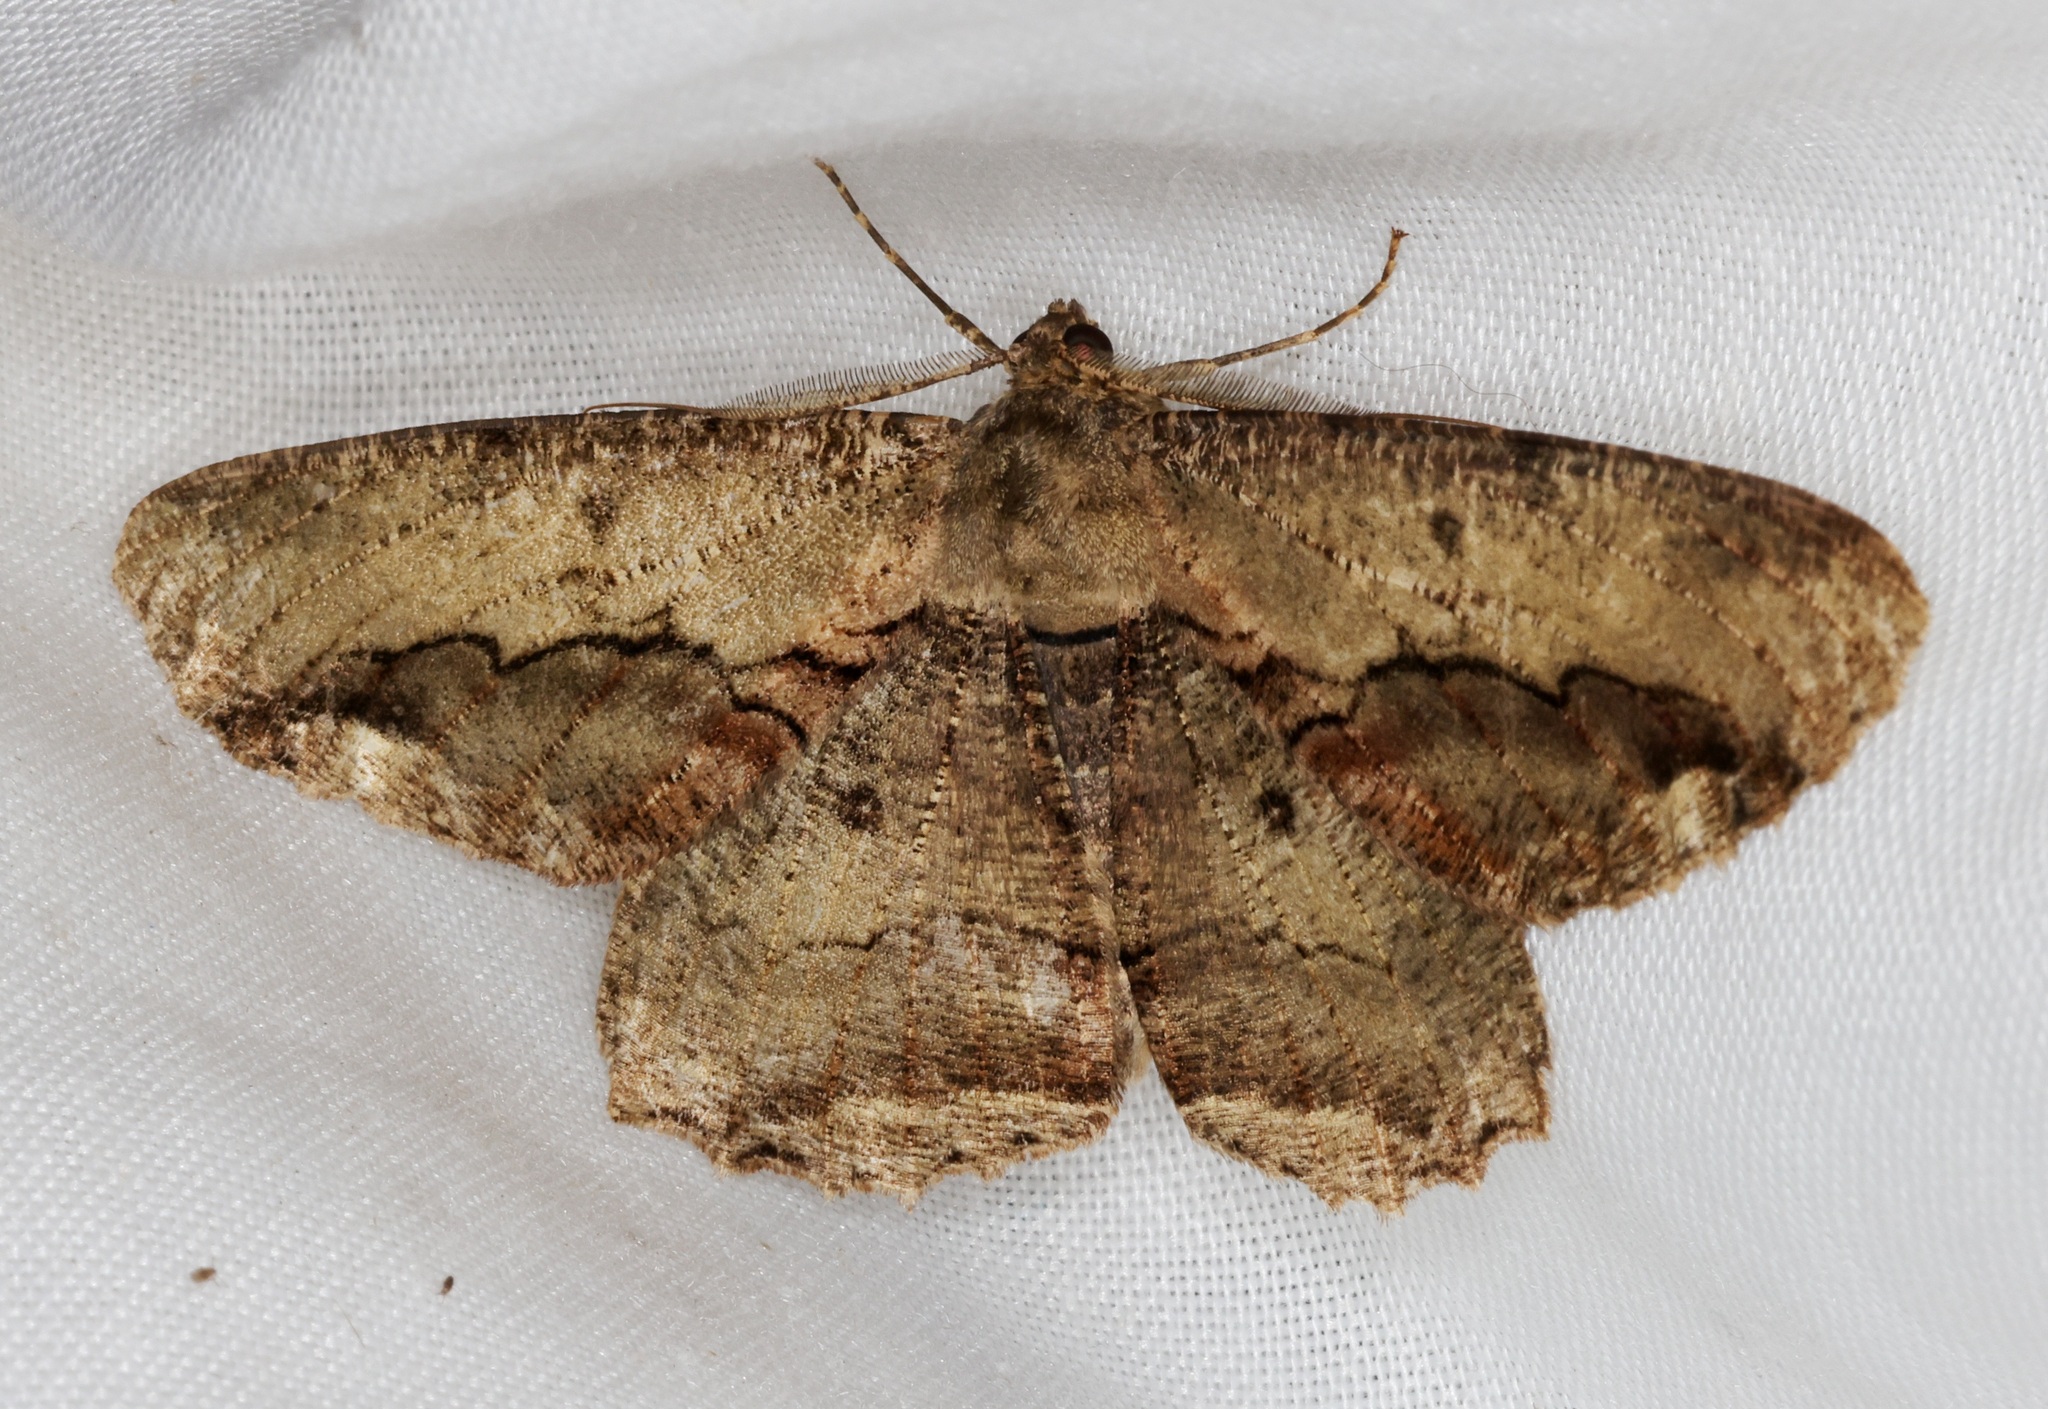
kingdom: Animalia
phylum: Arthropoda
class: Insecta
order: Lepidoptera
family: Geometridae
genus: Chorodna
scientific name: Chorodna strixaria
